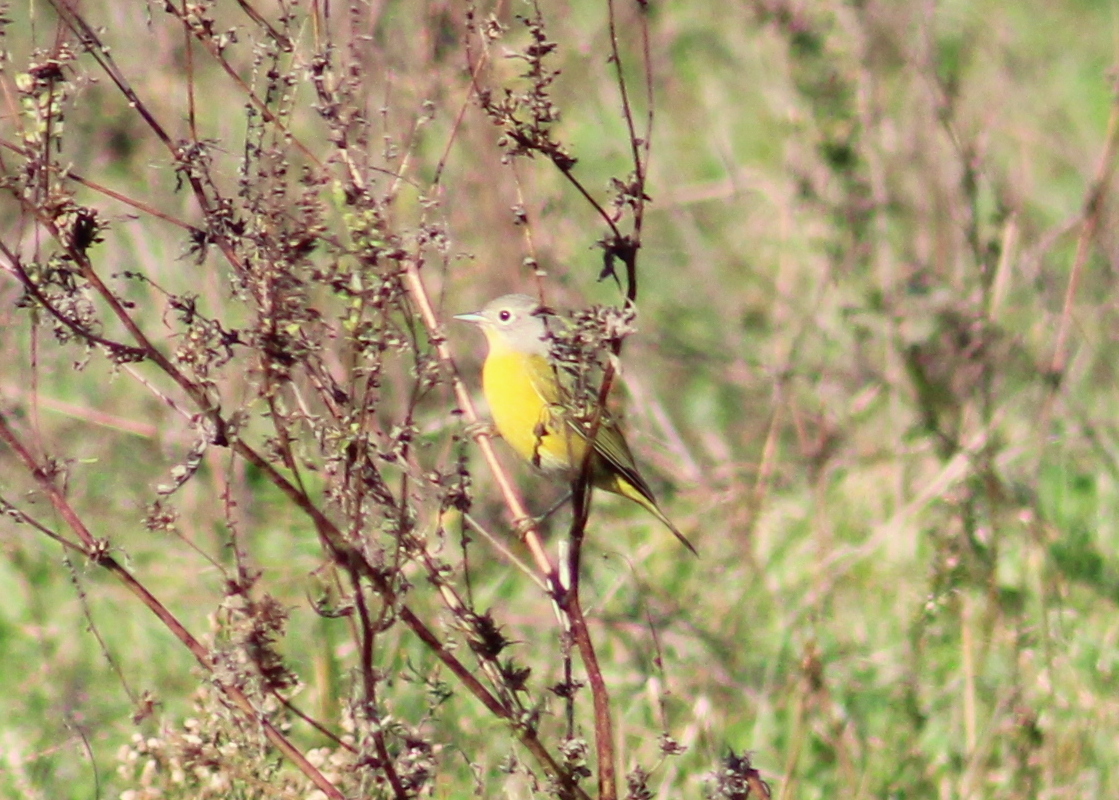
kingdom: Animalia
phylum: Chordata
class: Aves
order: Passeriformes
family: Parulidae
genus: Leiothlypis
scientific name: Leiothlypis ruficapilla
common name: Nashville warbler
